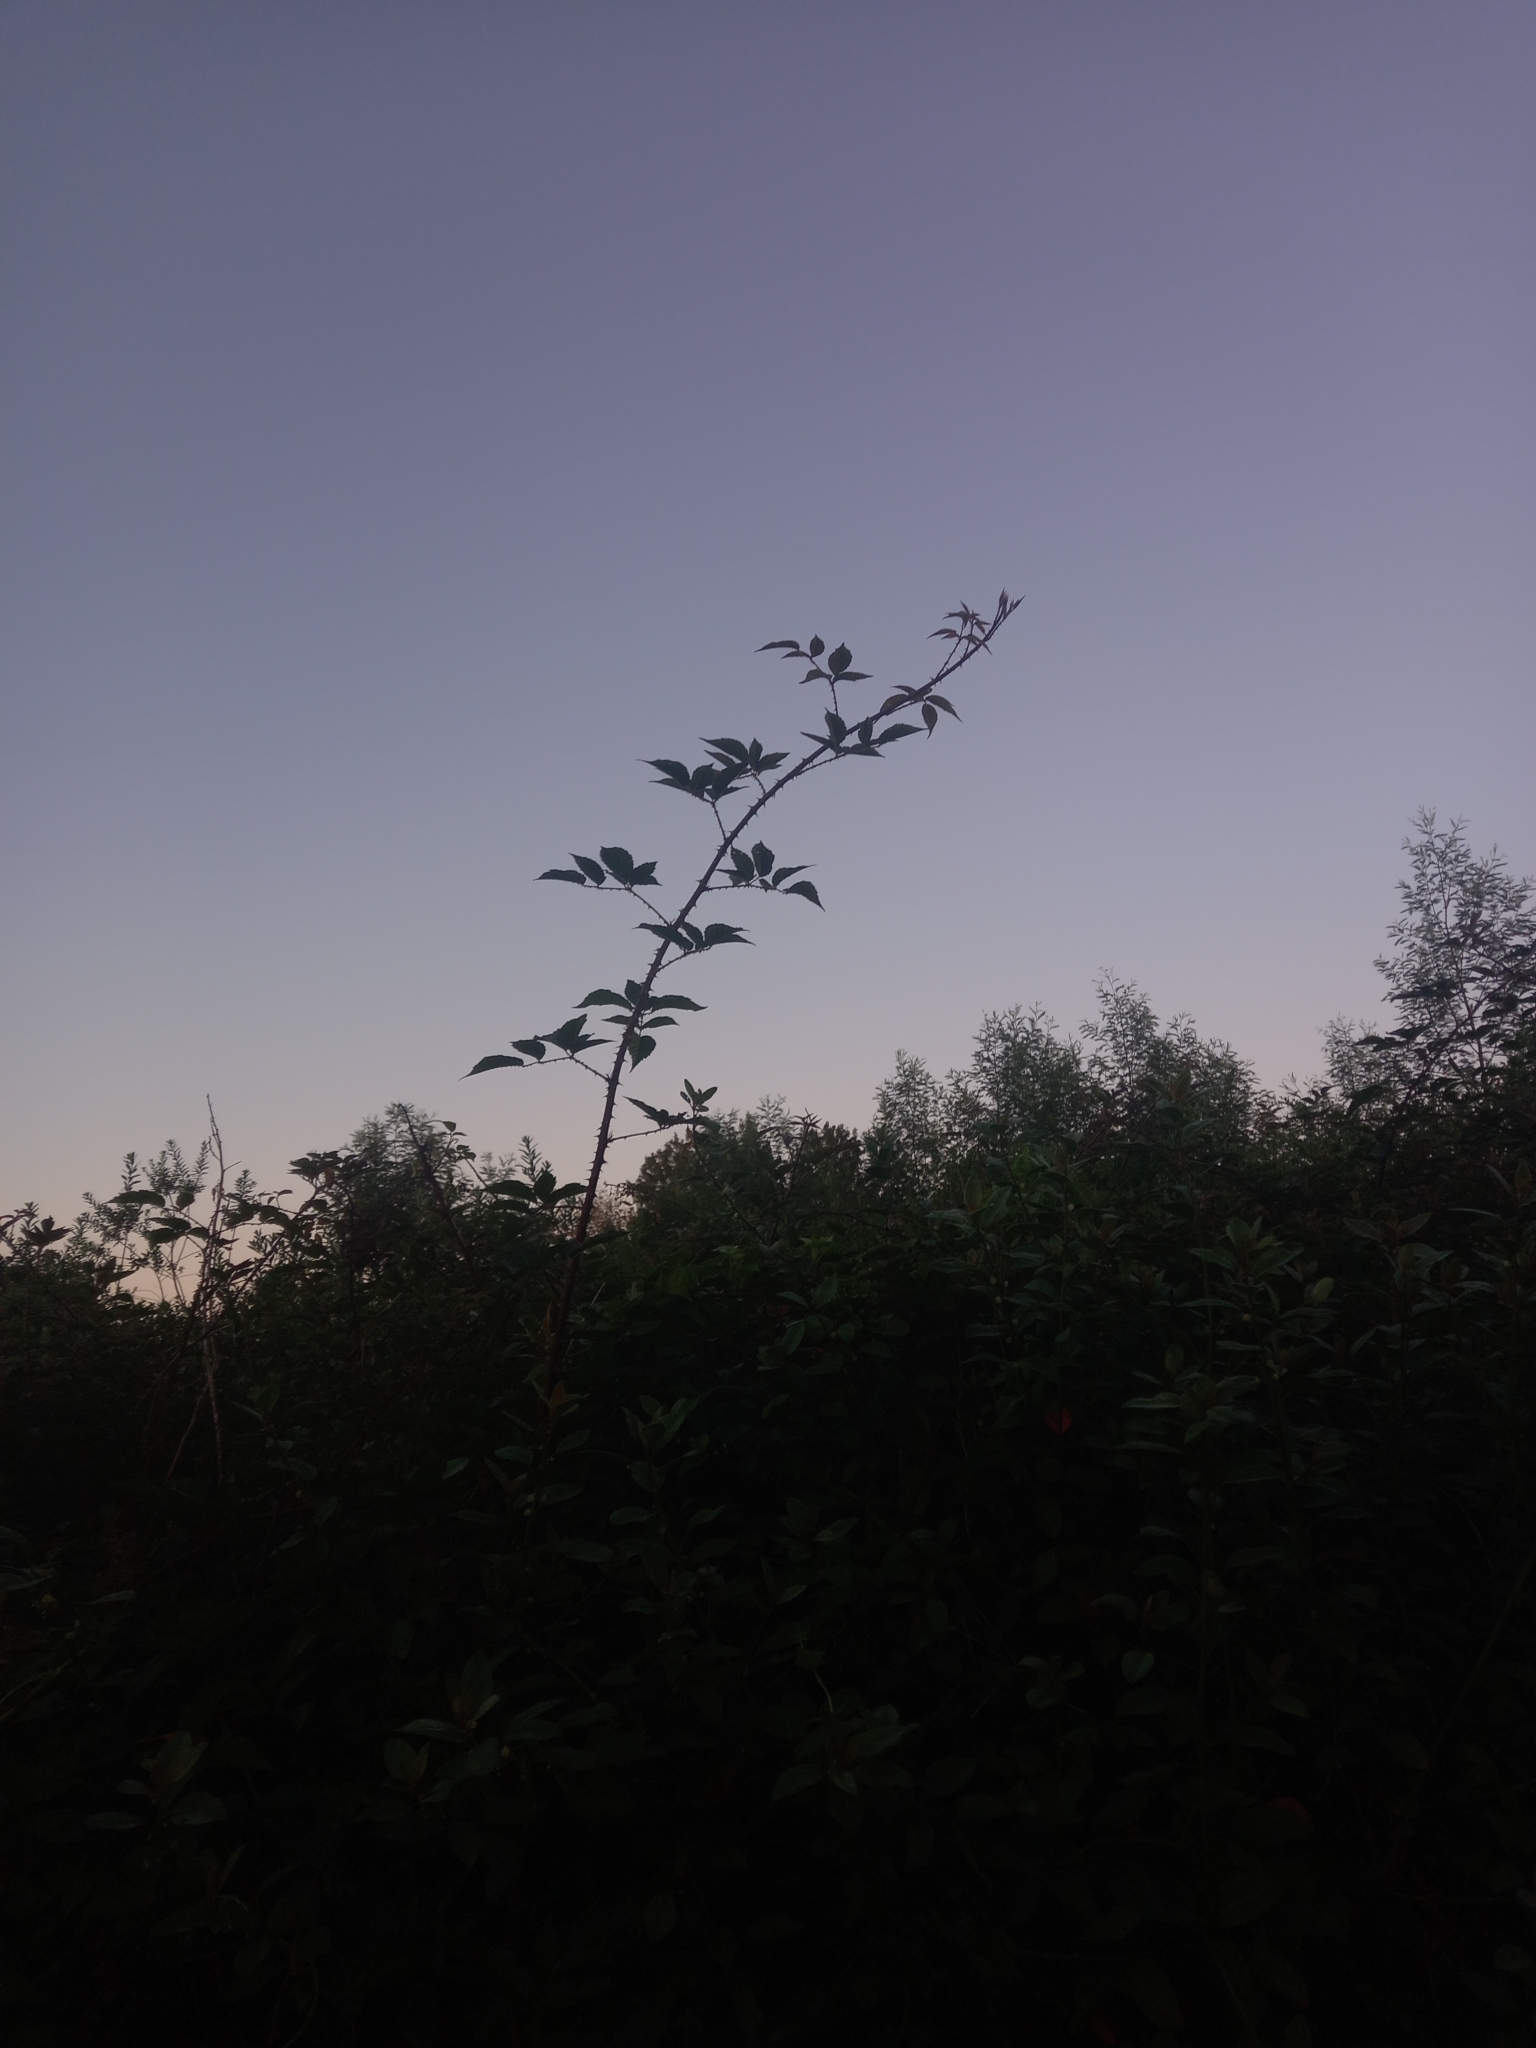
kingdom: Plantae
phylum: Tracheophyta
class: Magnoliopsida
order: Rosales
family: Rosaceae
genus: Rubus
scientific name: Rubus pinnatus
